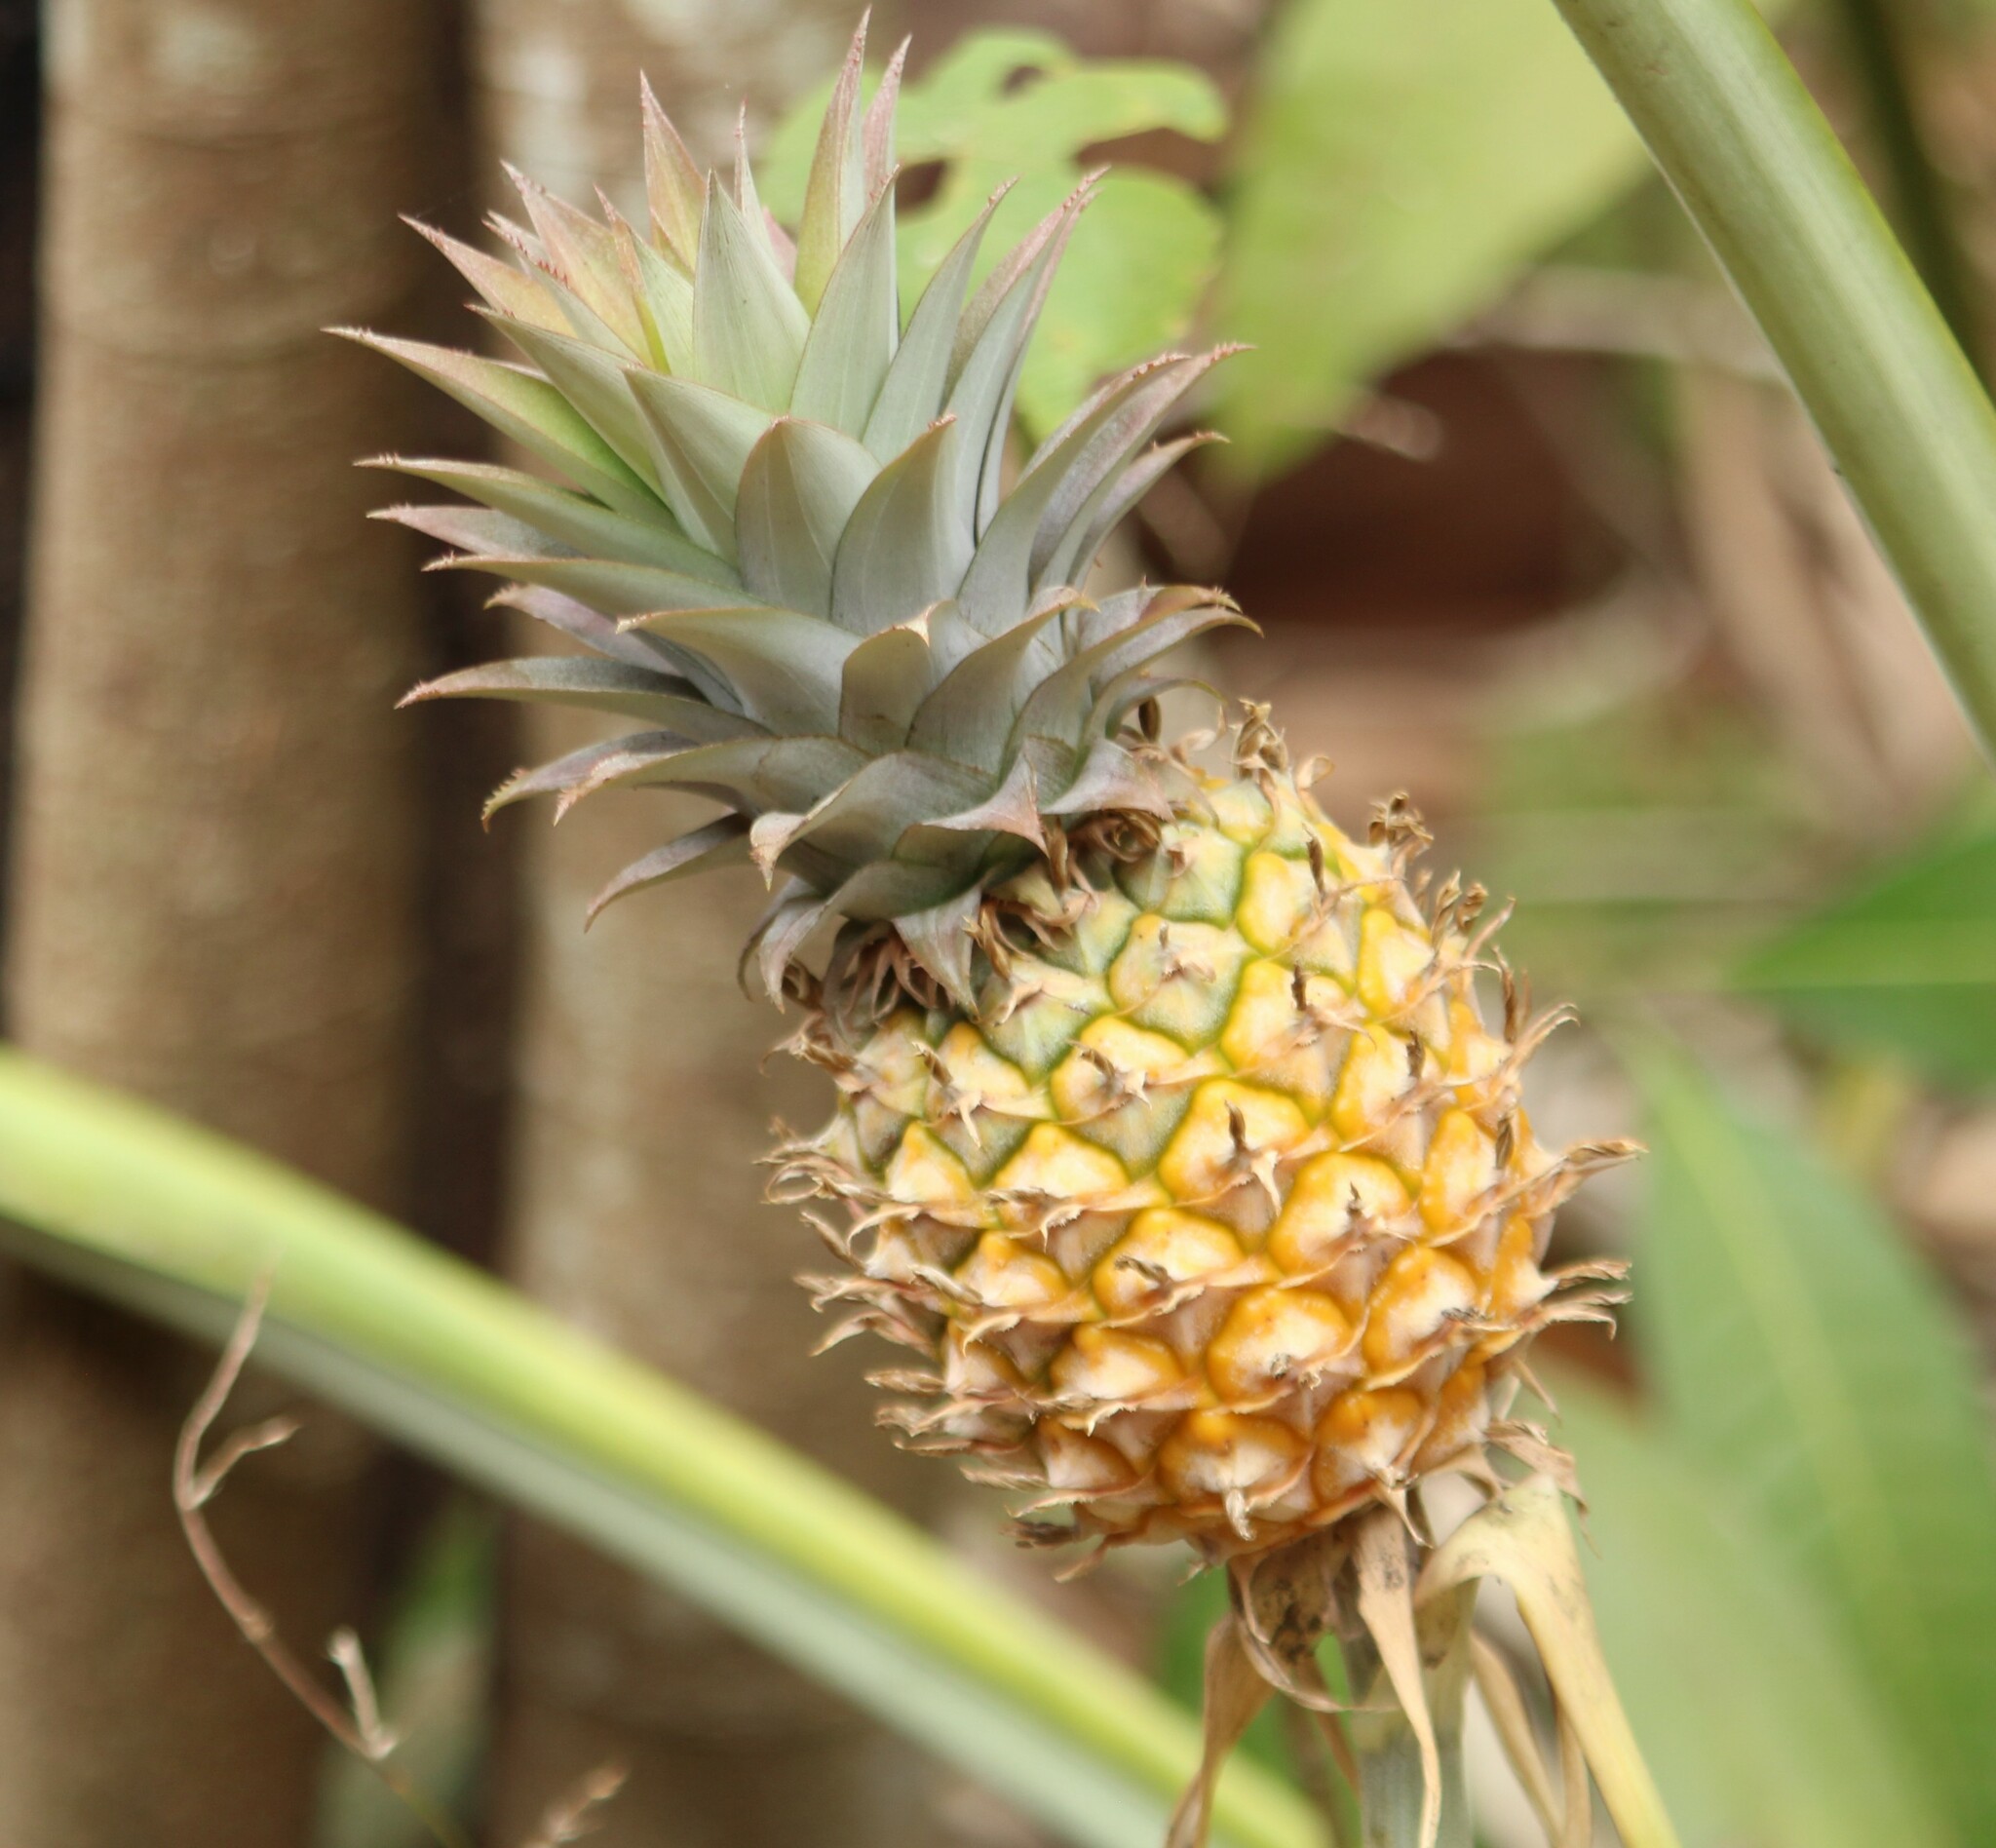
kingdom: Plantae
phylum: Tracheophyta
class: Liliopsida
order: Poales
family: Bromeliaceae
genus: Ananas
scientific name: Ananas comosus
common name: Pineapple
